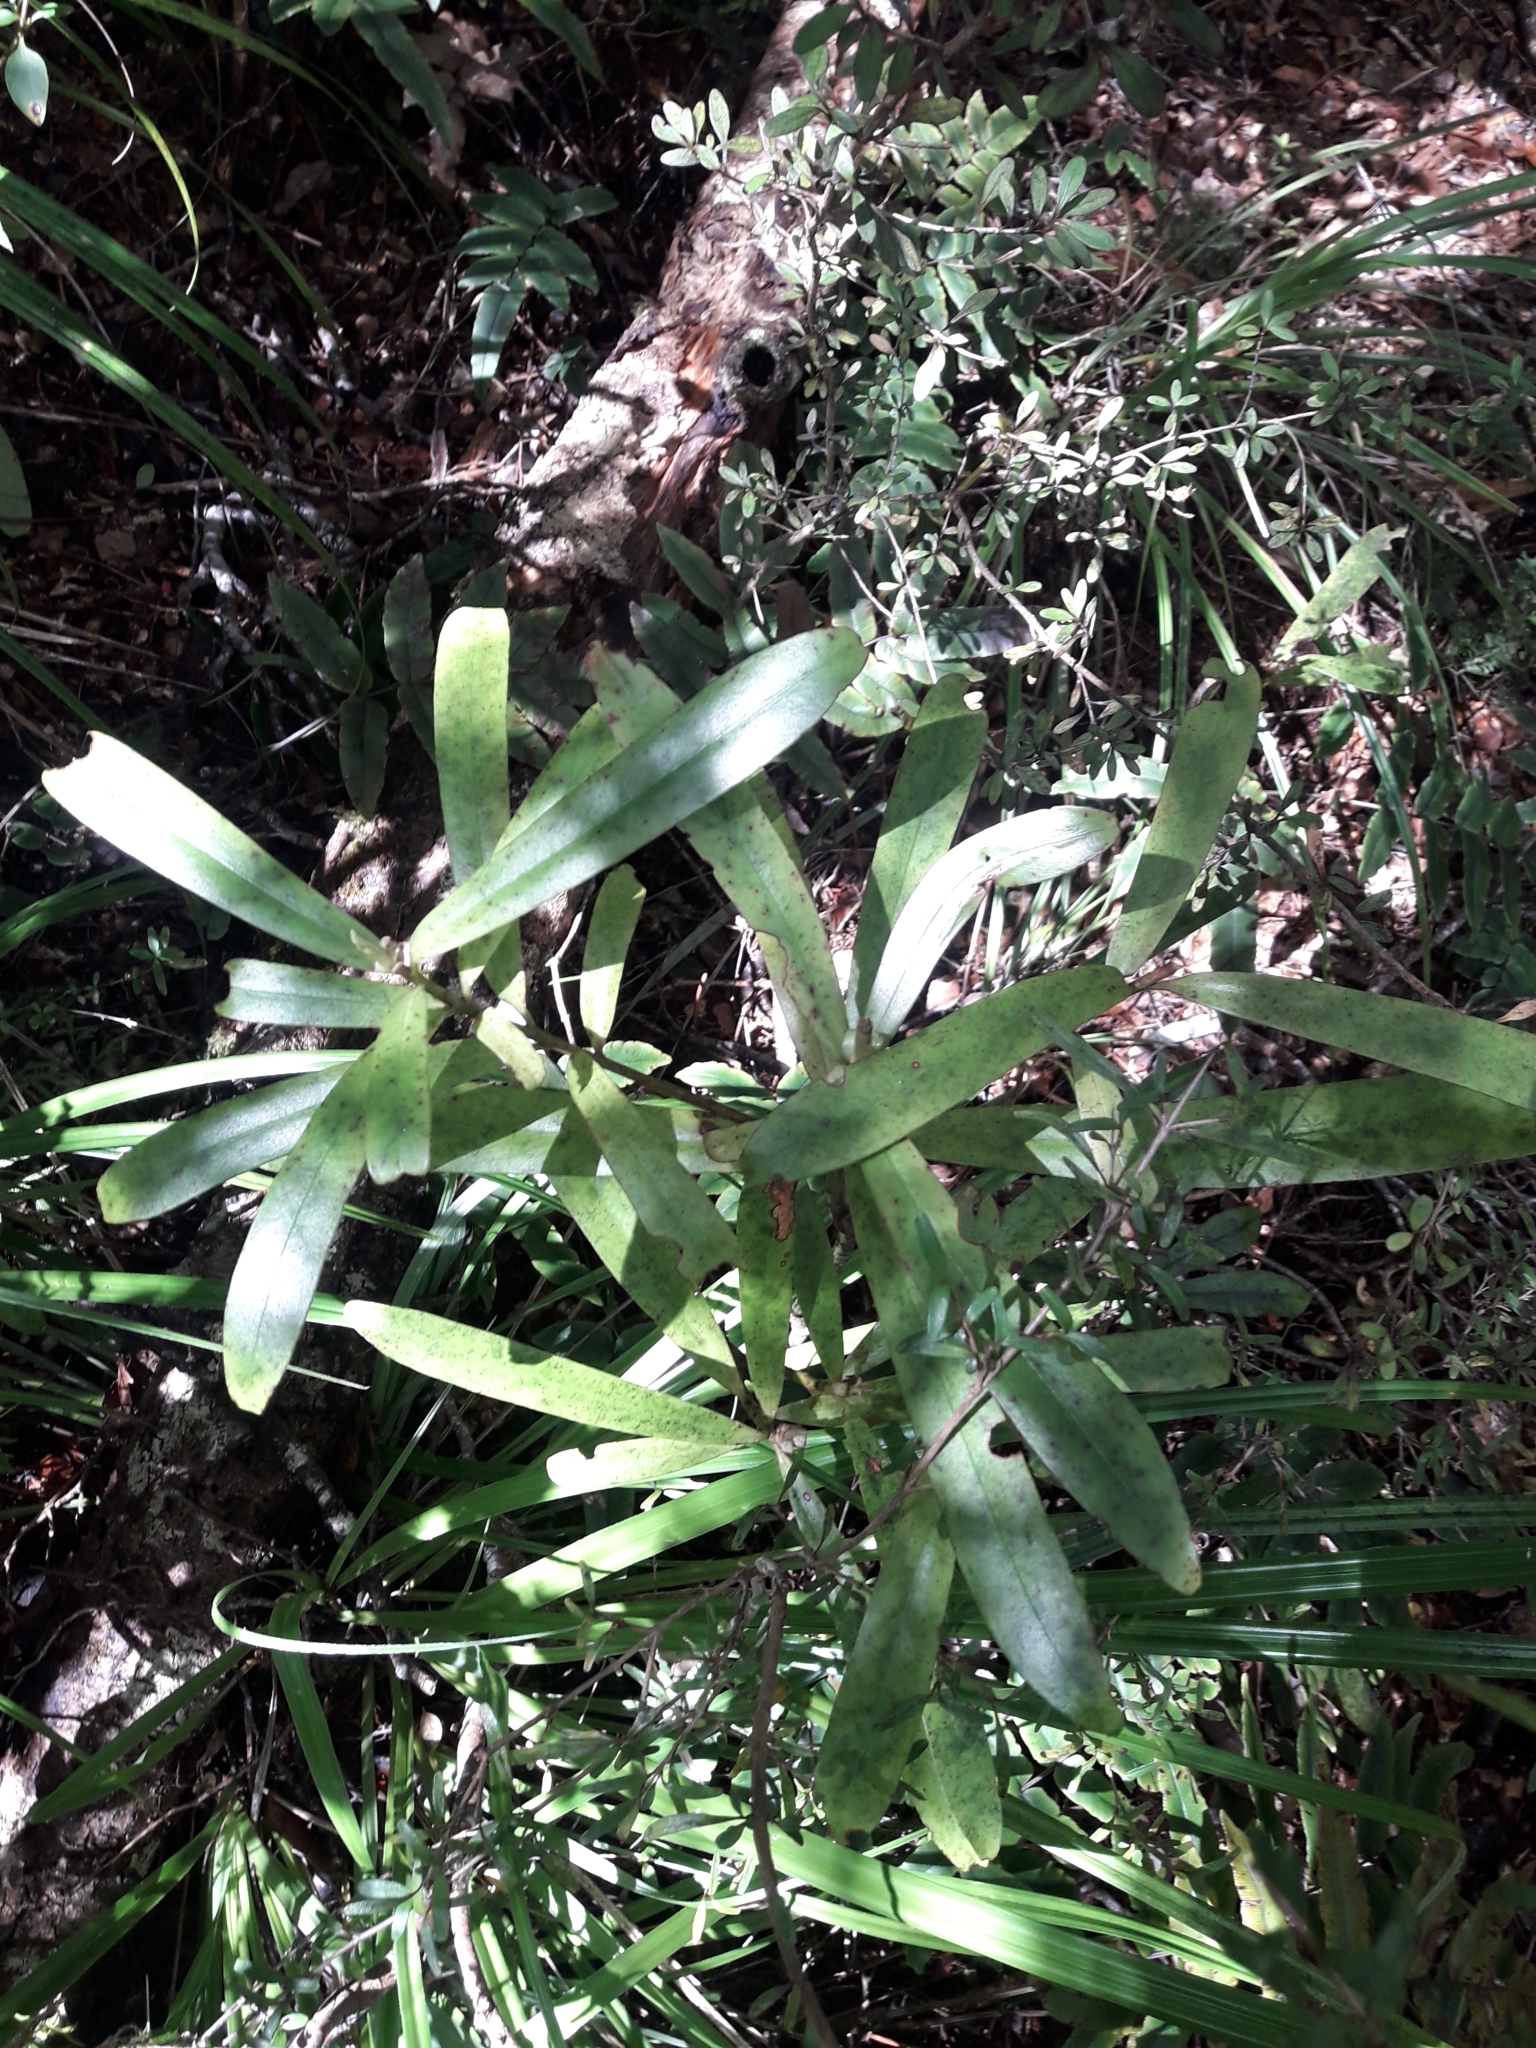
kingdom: Plantae
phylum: Tracheophyta
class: Magnoliopsida
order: Ericales
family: Primulaceae
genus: Myrsine
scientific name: Myrsine salicina
